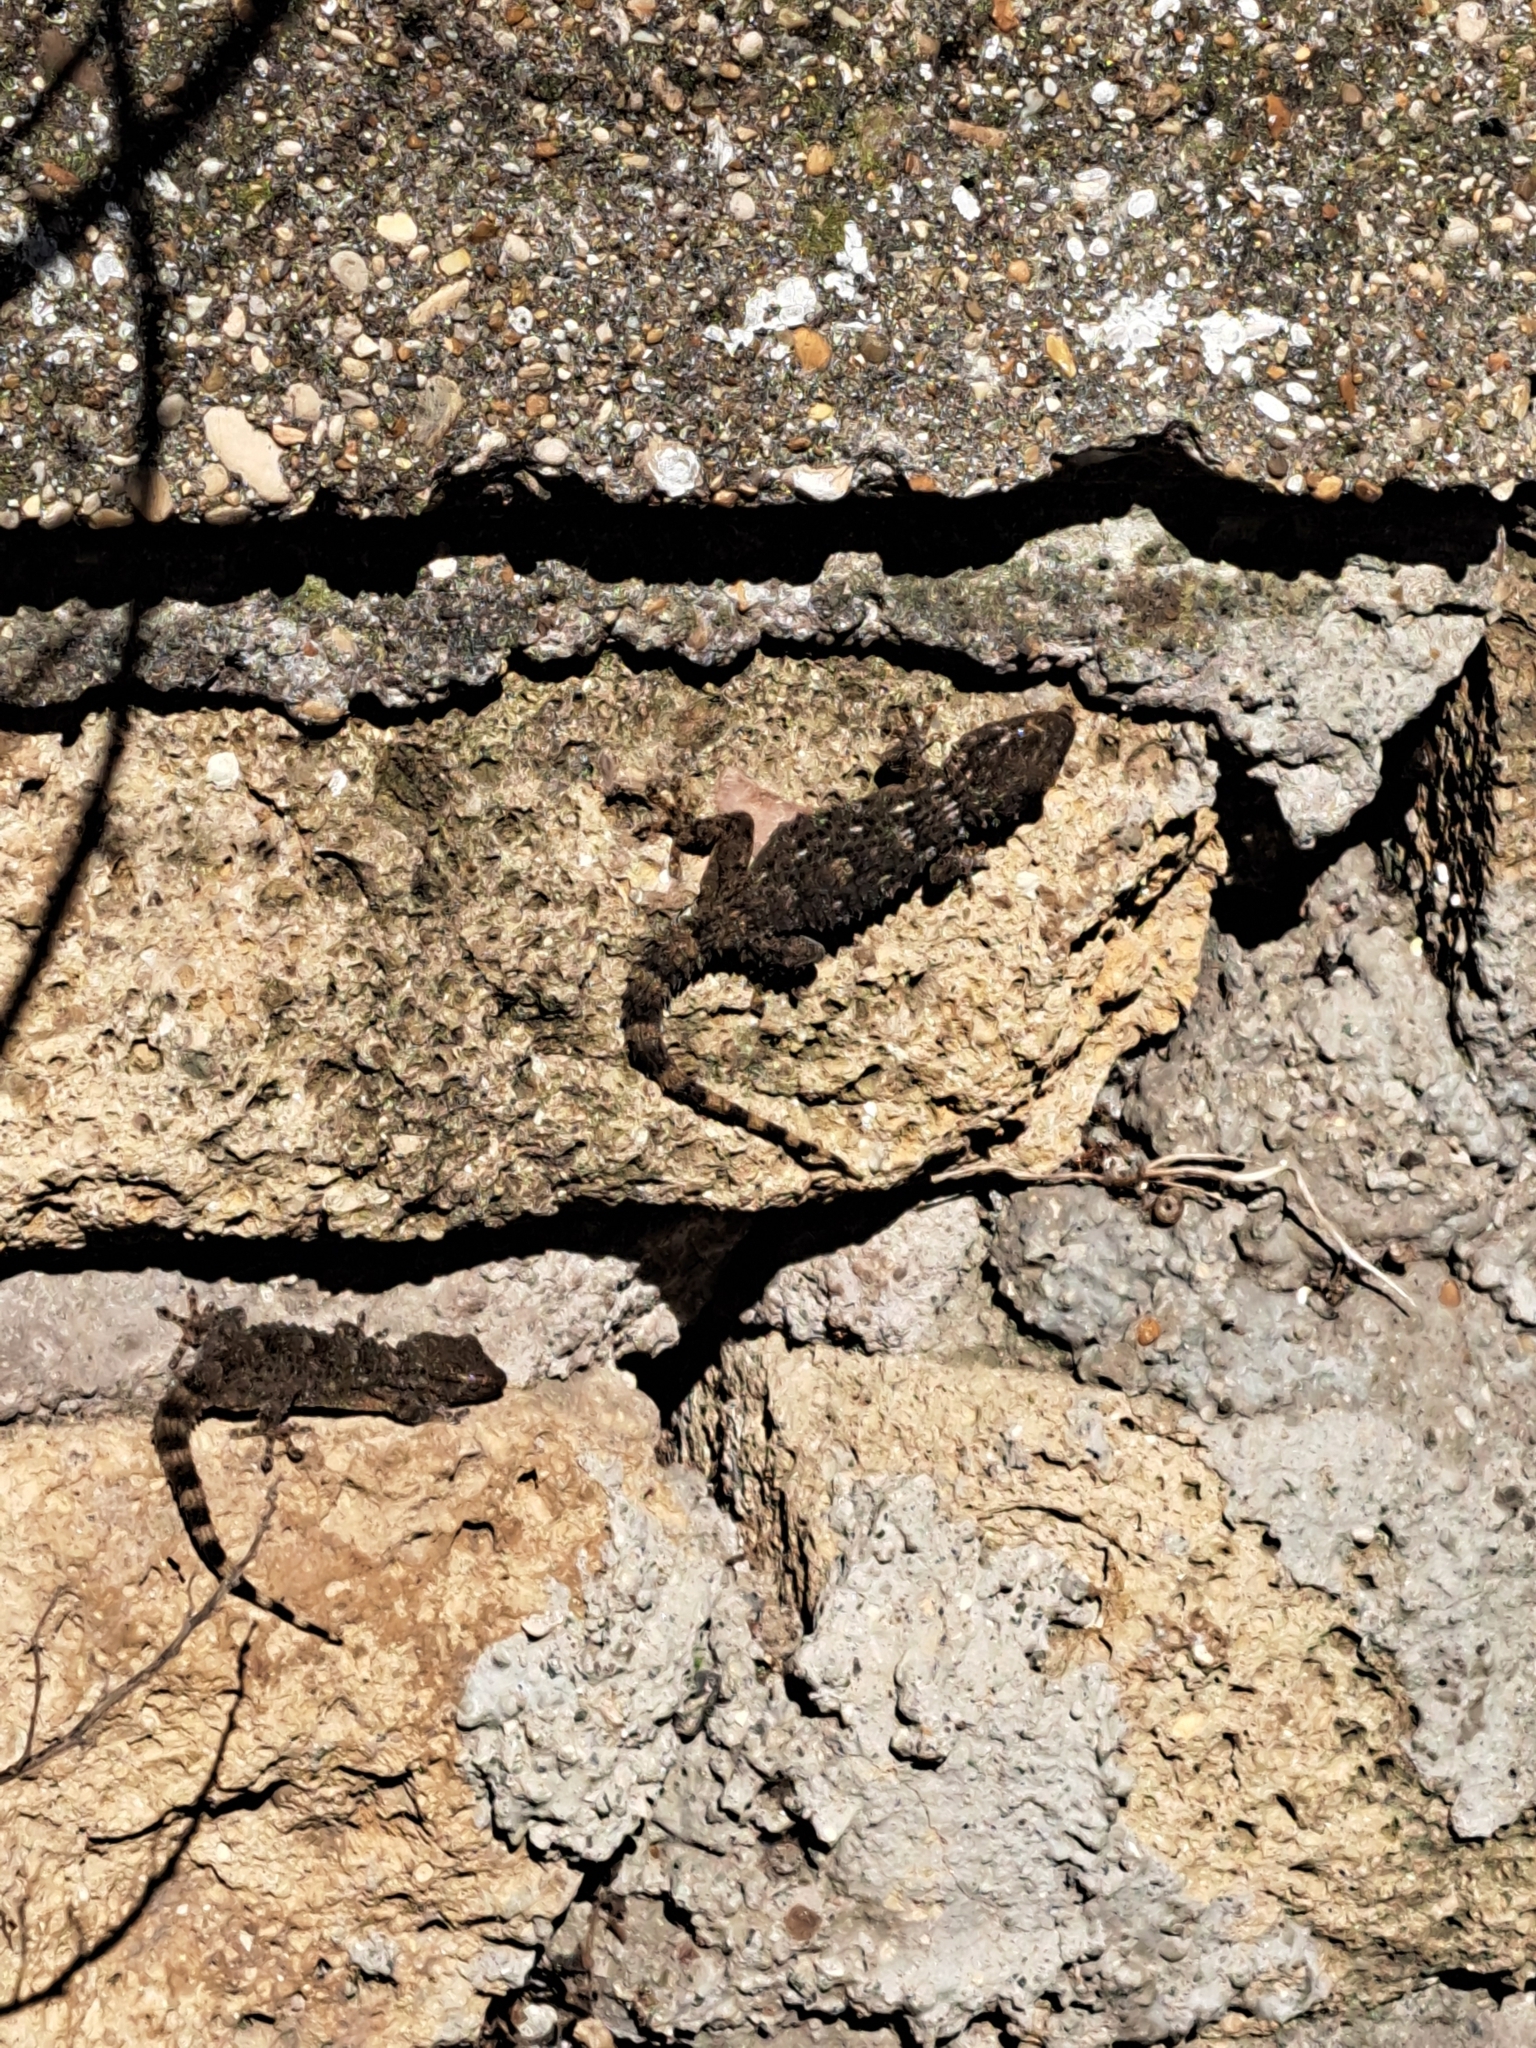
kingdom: Animalia
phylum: Chordata
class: Squamata
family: Phyllodactylidae
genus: Tarentola
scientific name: Tarentola mauritanica
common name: Moorish gecko
